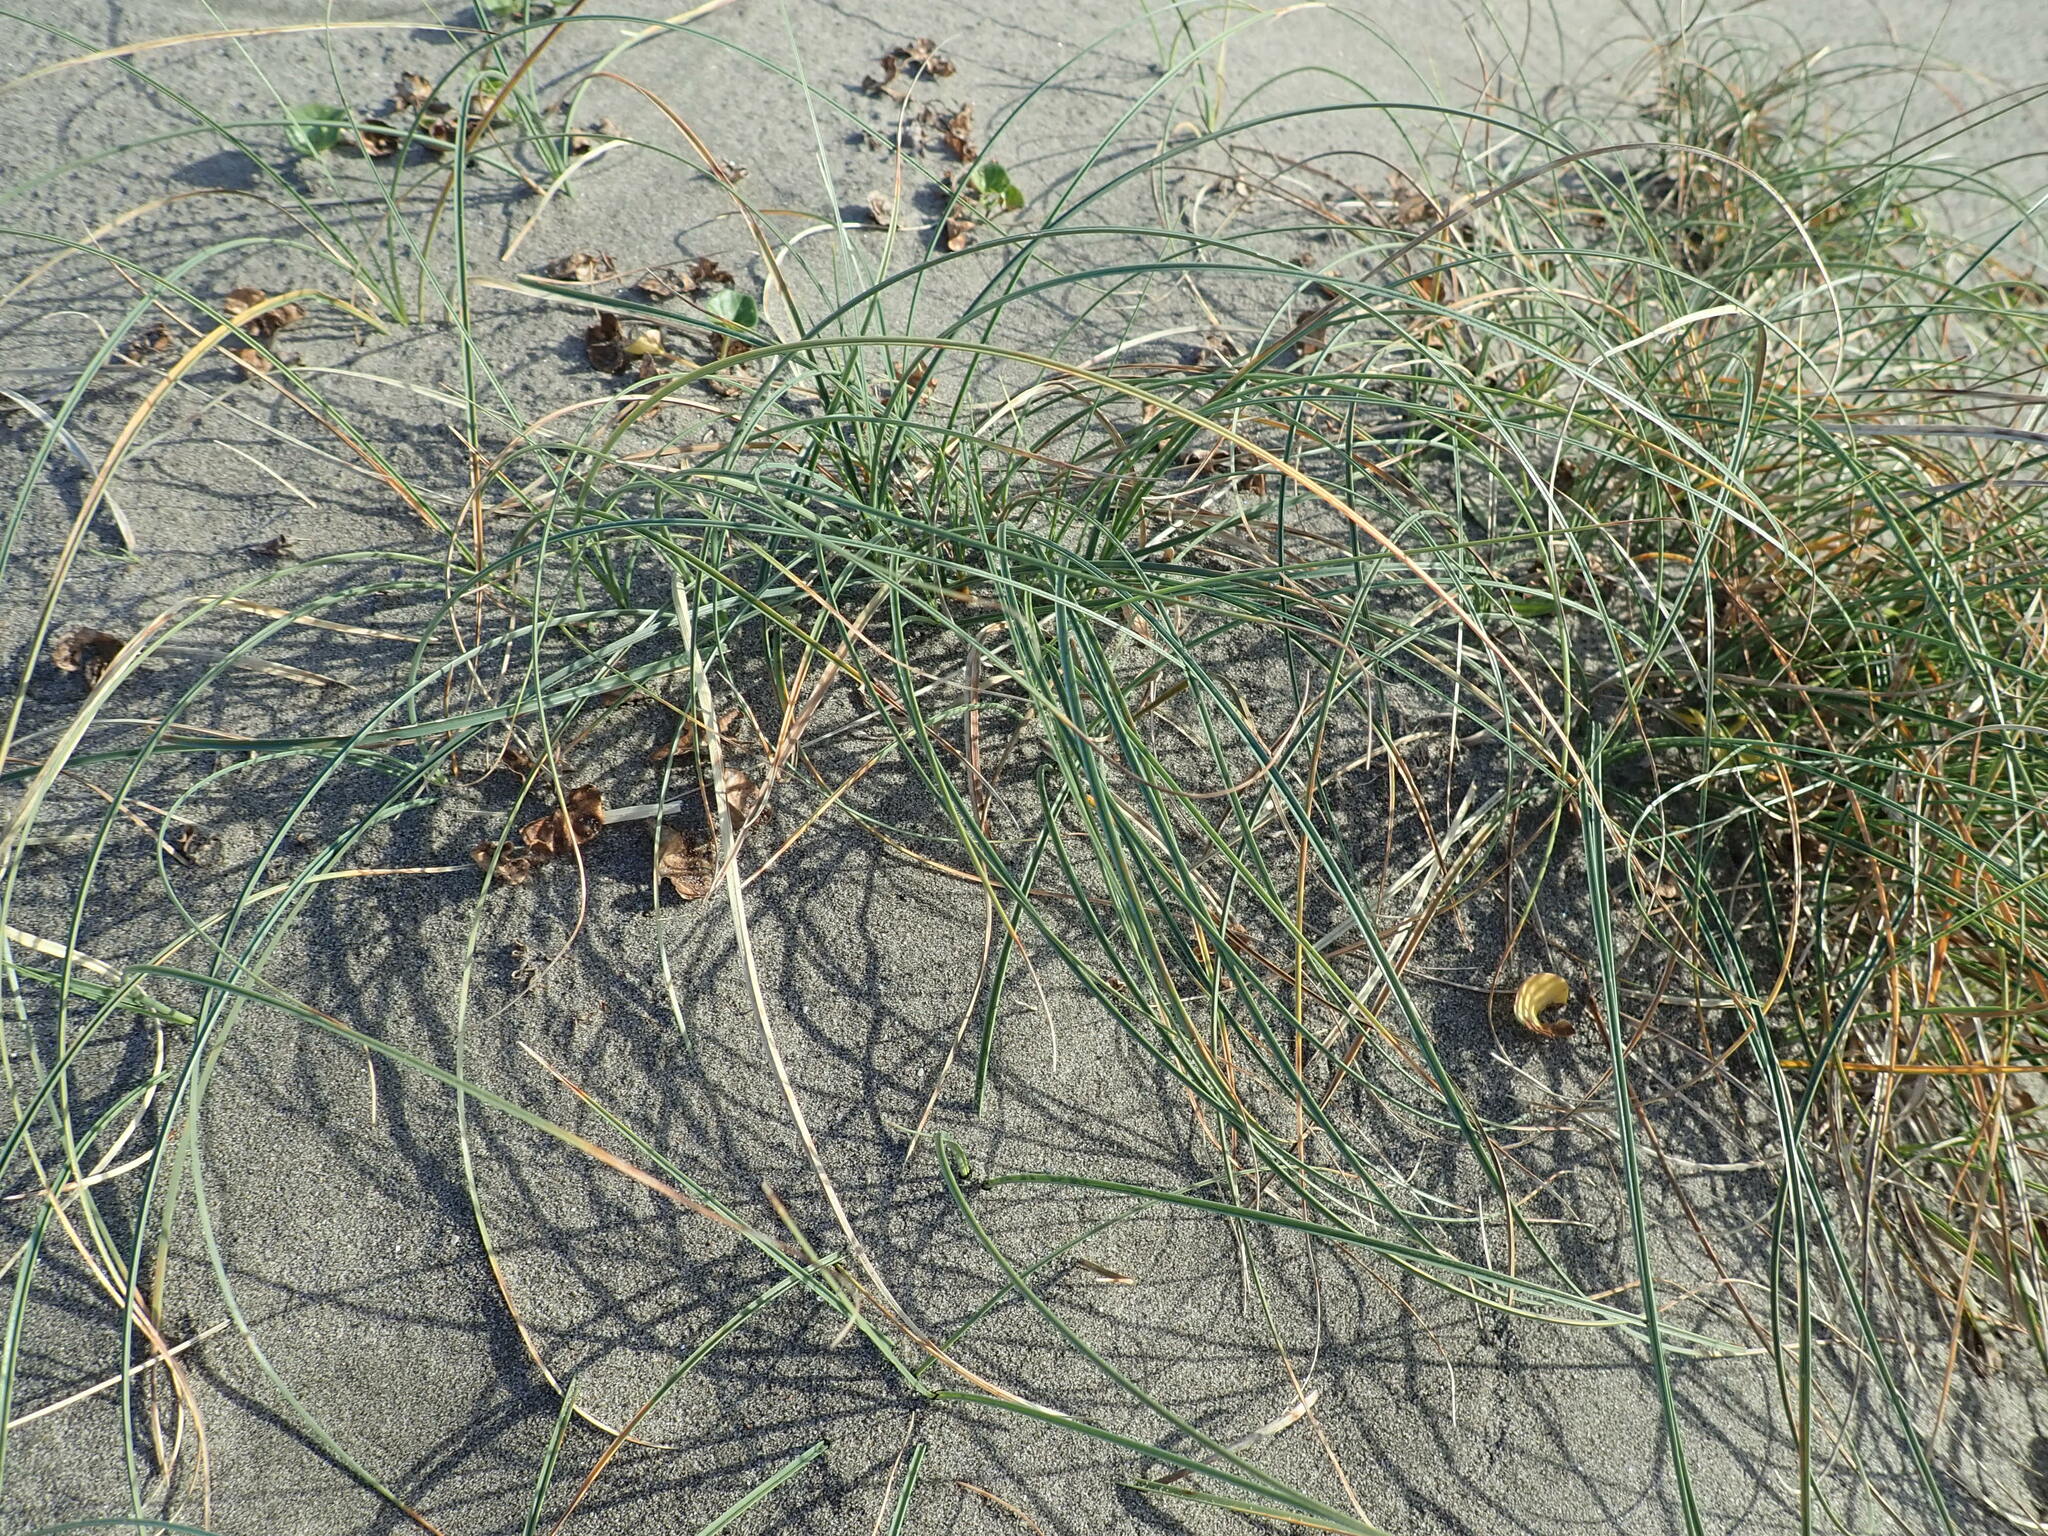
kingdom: Plantae
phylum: Tracheophyta
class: Liliopsida
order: Poales
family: Cyperaceae
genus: Carex
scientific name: Carex pumila
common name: Dwarf sedge
